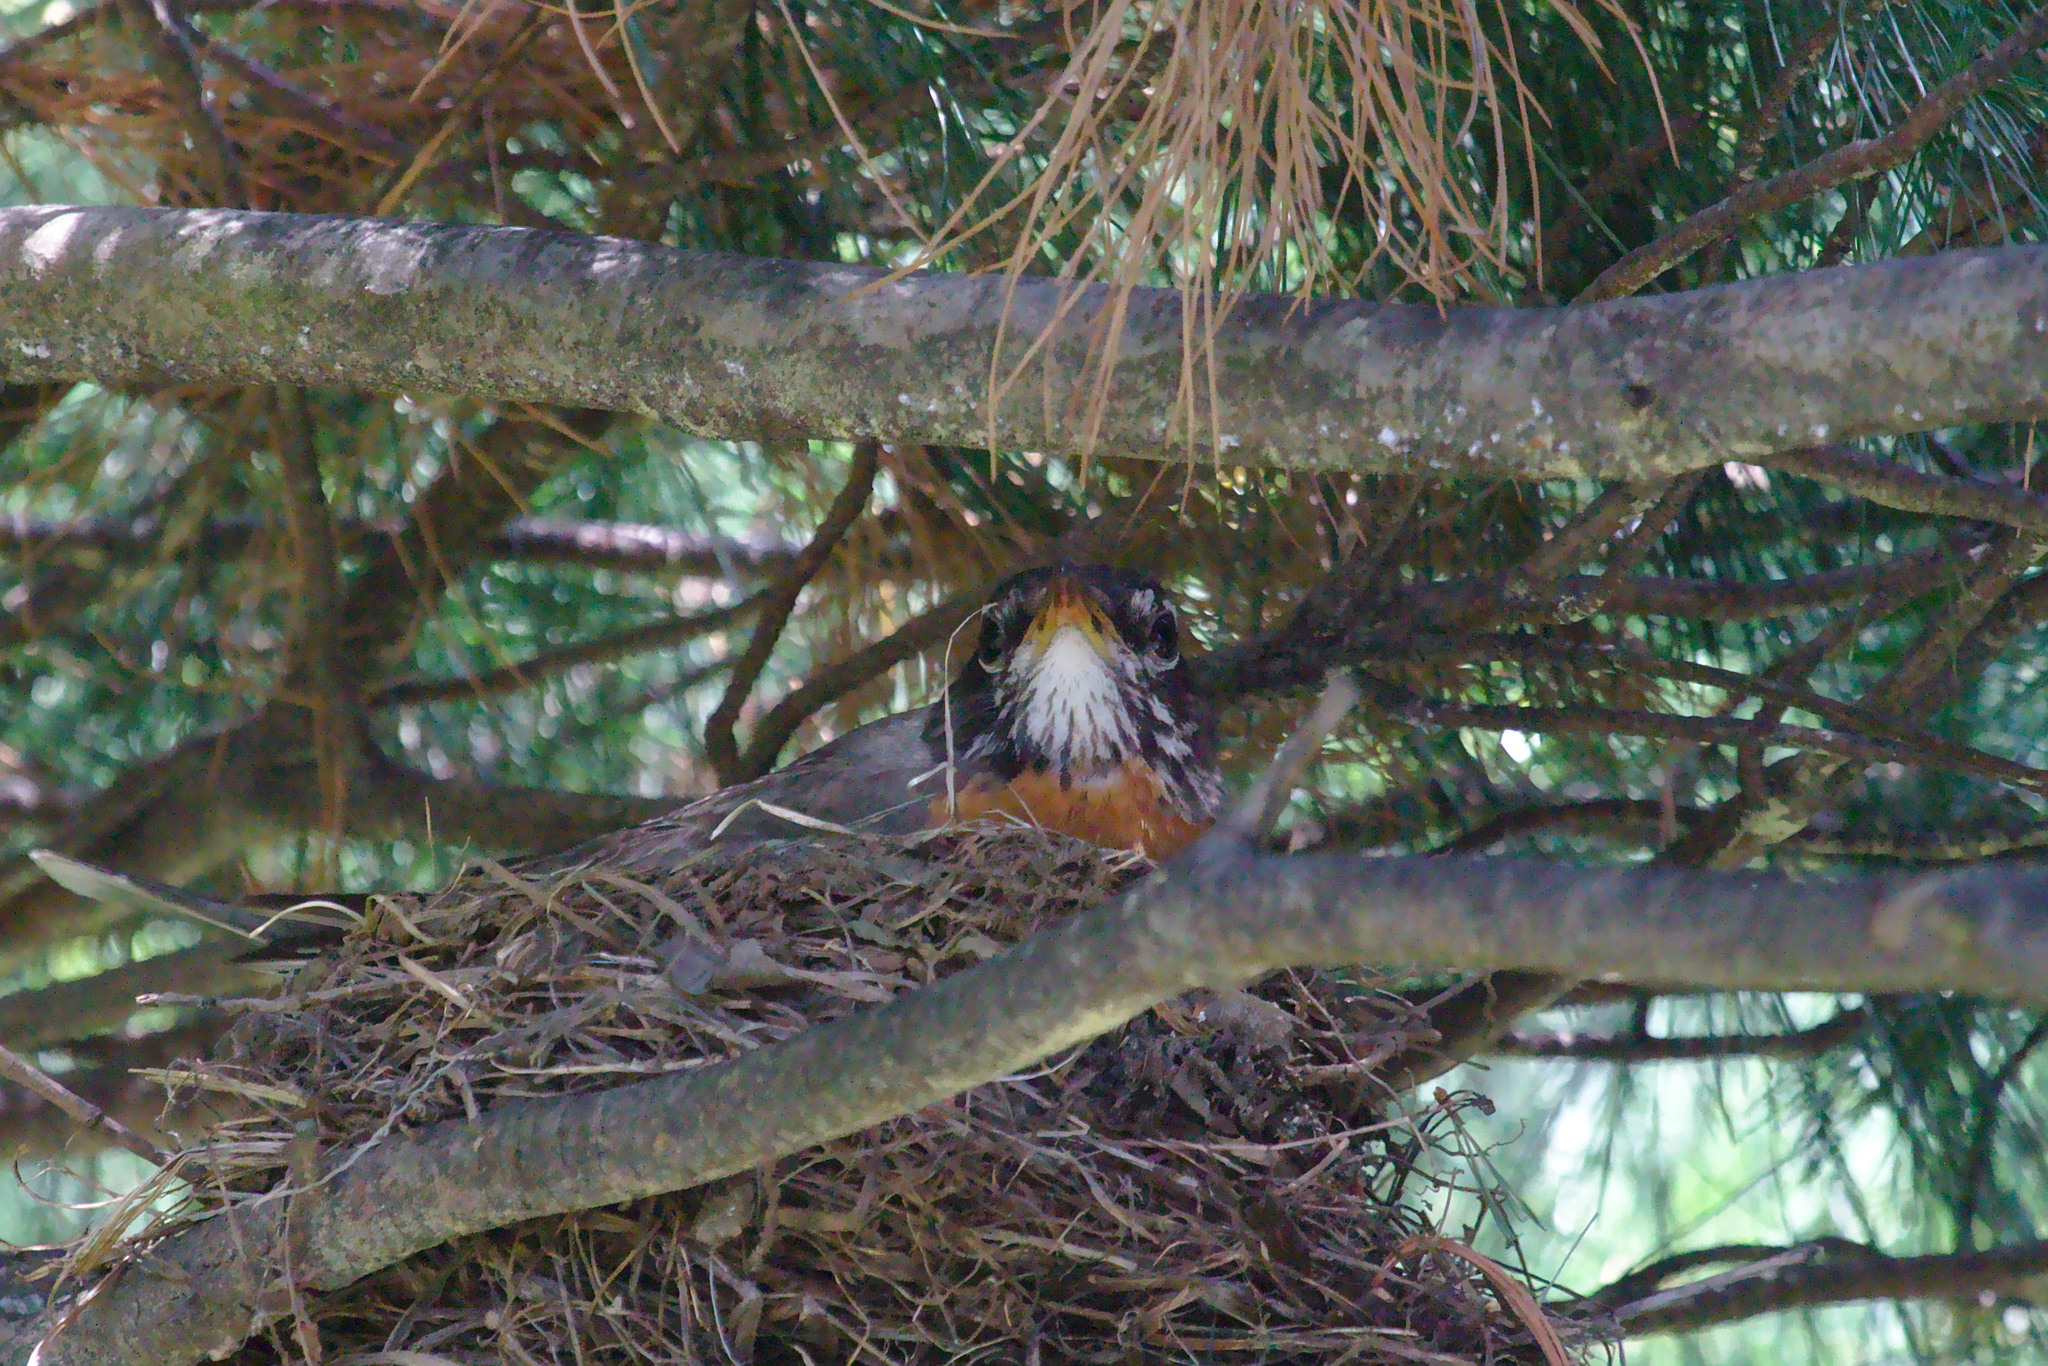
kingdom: Animalia
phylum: Chordata
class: Aves
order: Passeriformes
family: Turdidae
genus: Turdus
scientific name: Turdus migratorius
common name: American robin
